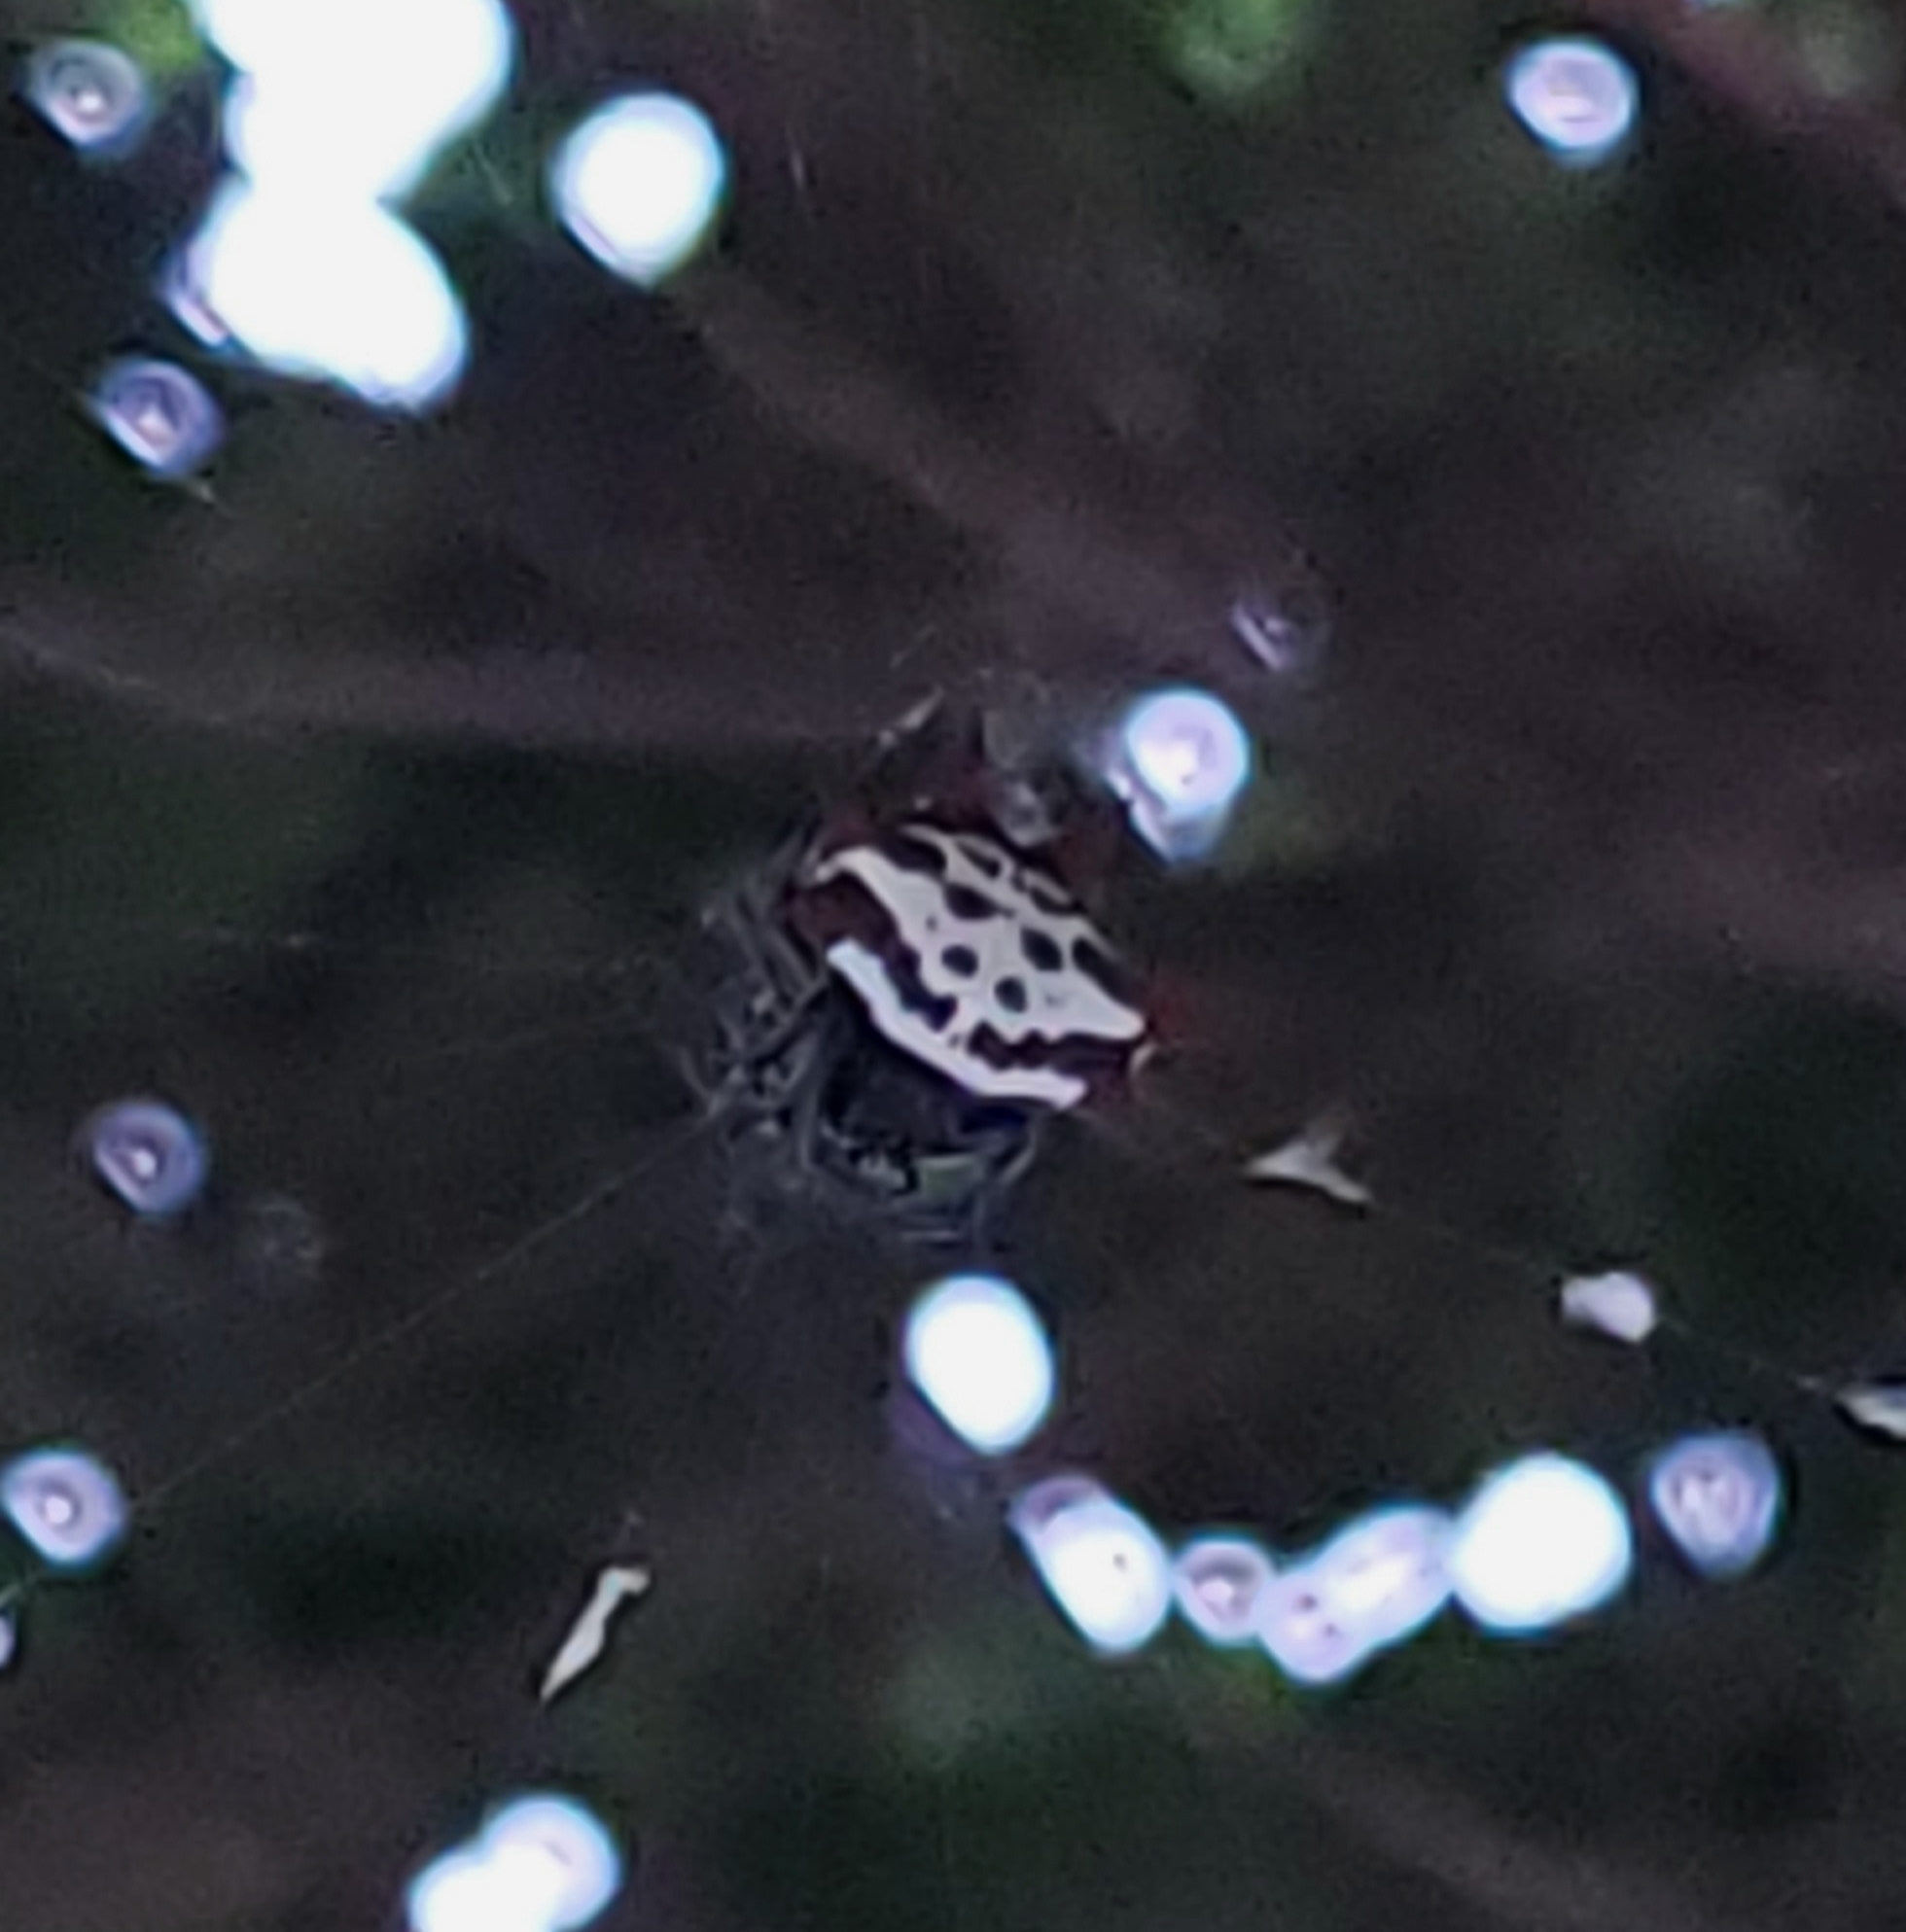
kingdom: Animalia
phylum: Arthropoda
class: Arachnida
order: Araneae
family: Araneidae
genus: Gasteracantha
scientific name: Gasteracantha cancriformis
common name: Orb weavers
